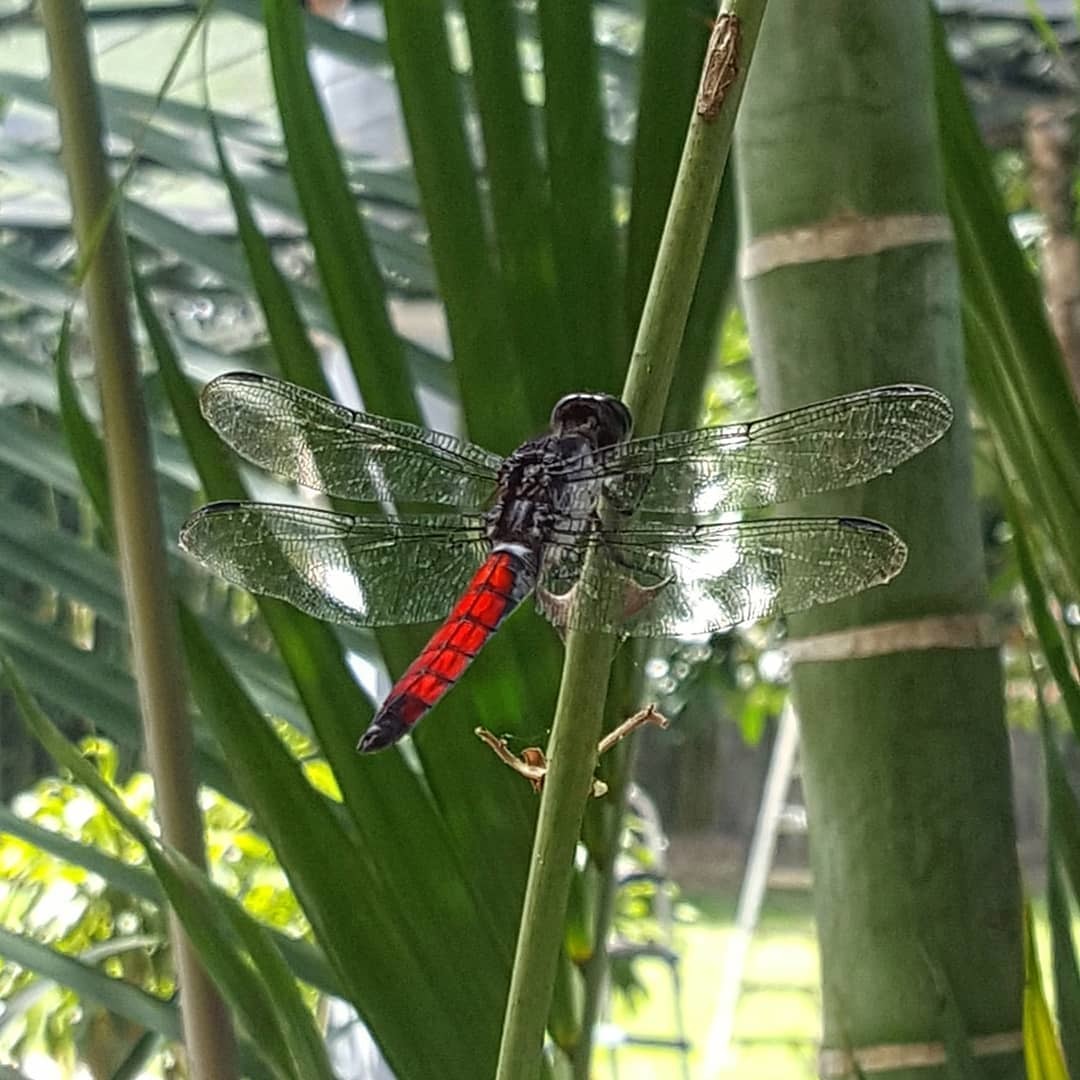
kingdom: Animalia
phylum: Arthropoda
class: Insecta
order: Odonata
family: Libellulidae
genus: Libellula
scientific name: Libellula herculea
